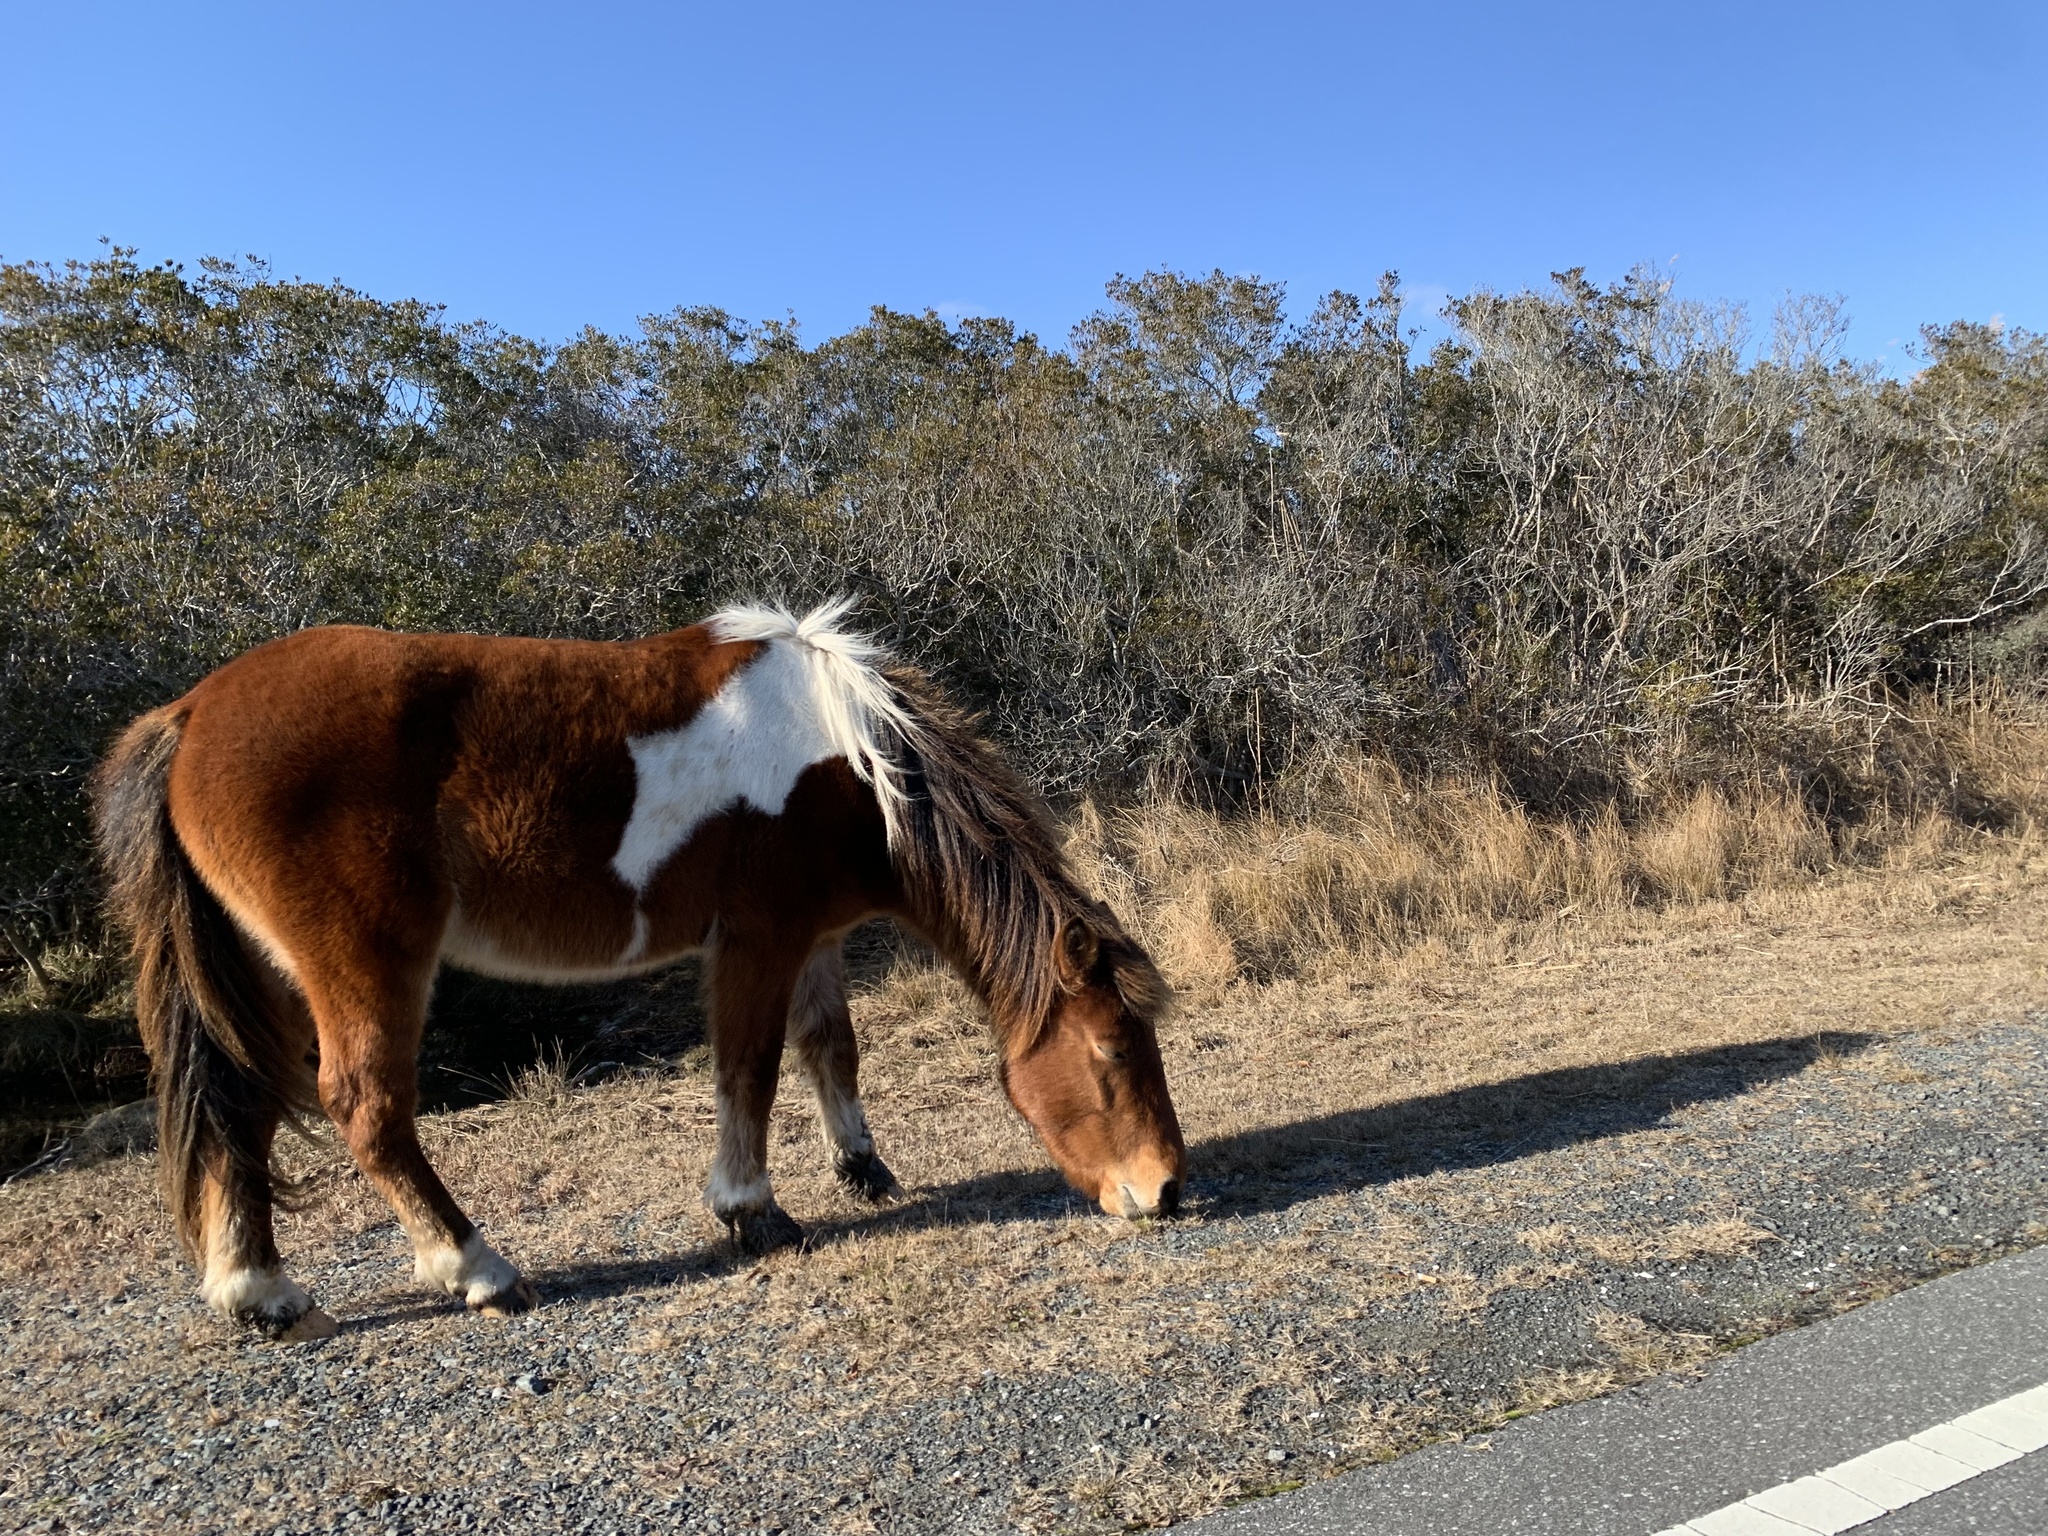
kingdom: Animalia
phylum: Chordata
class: Mammalia
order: Perissodactyla
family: Equidae
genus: Equus
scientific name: Equus caballus
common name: Horse
